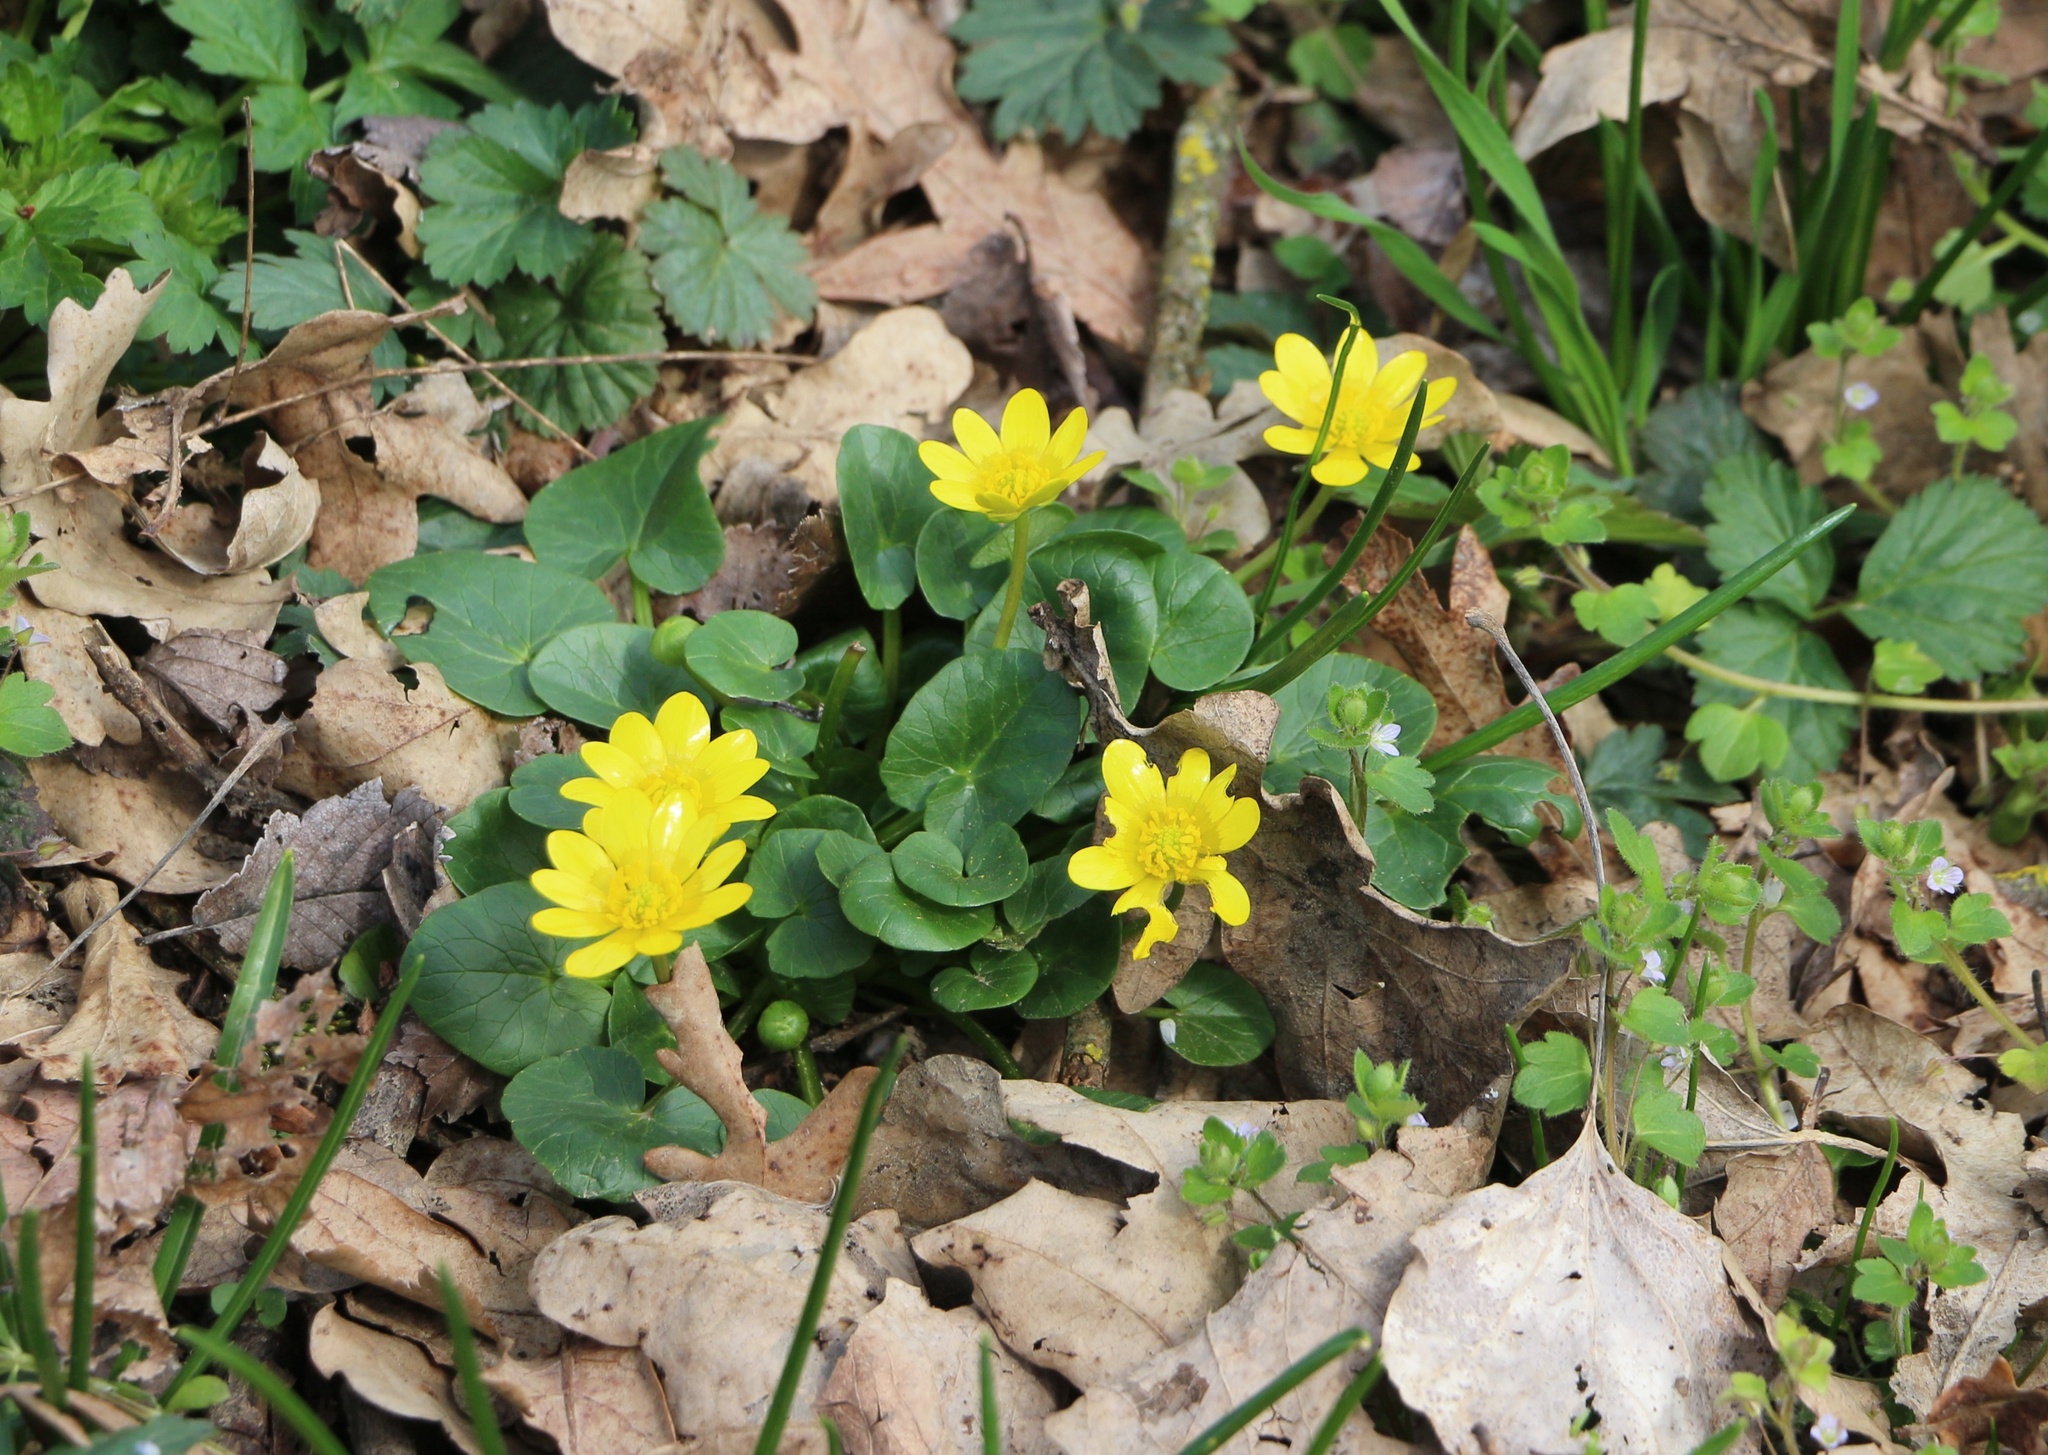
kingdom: Plantae
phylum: Tracheophyta
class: Magnoliopsida
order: Ranunculales
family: Ranunculaceae
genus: Ficaria
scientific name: Ficaria verna
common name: Lesser celandine
